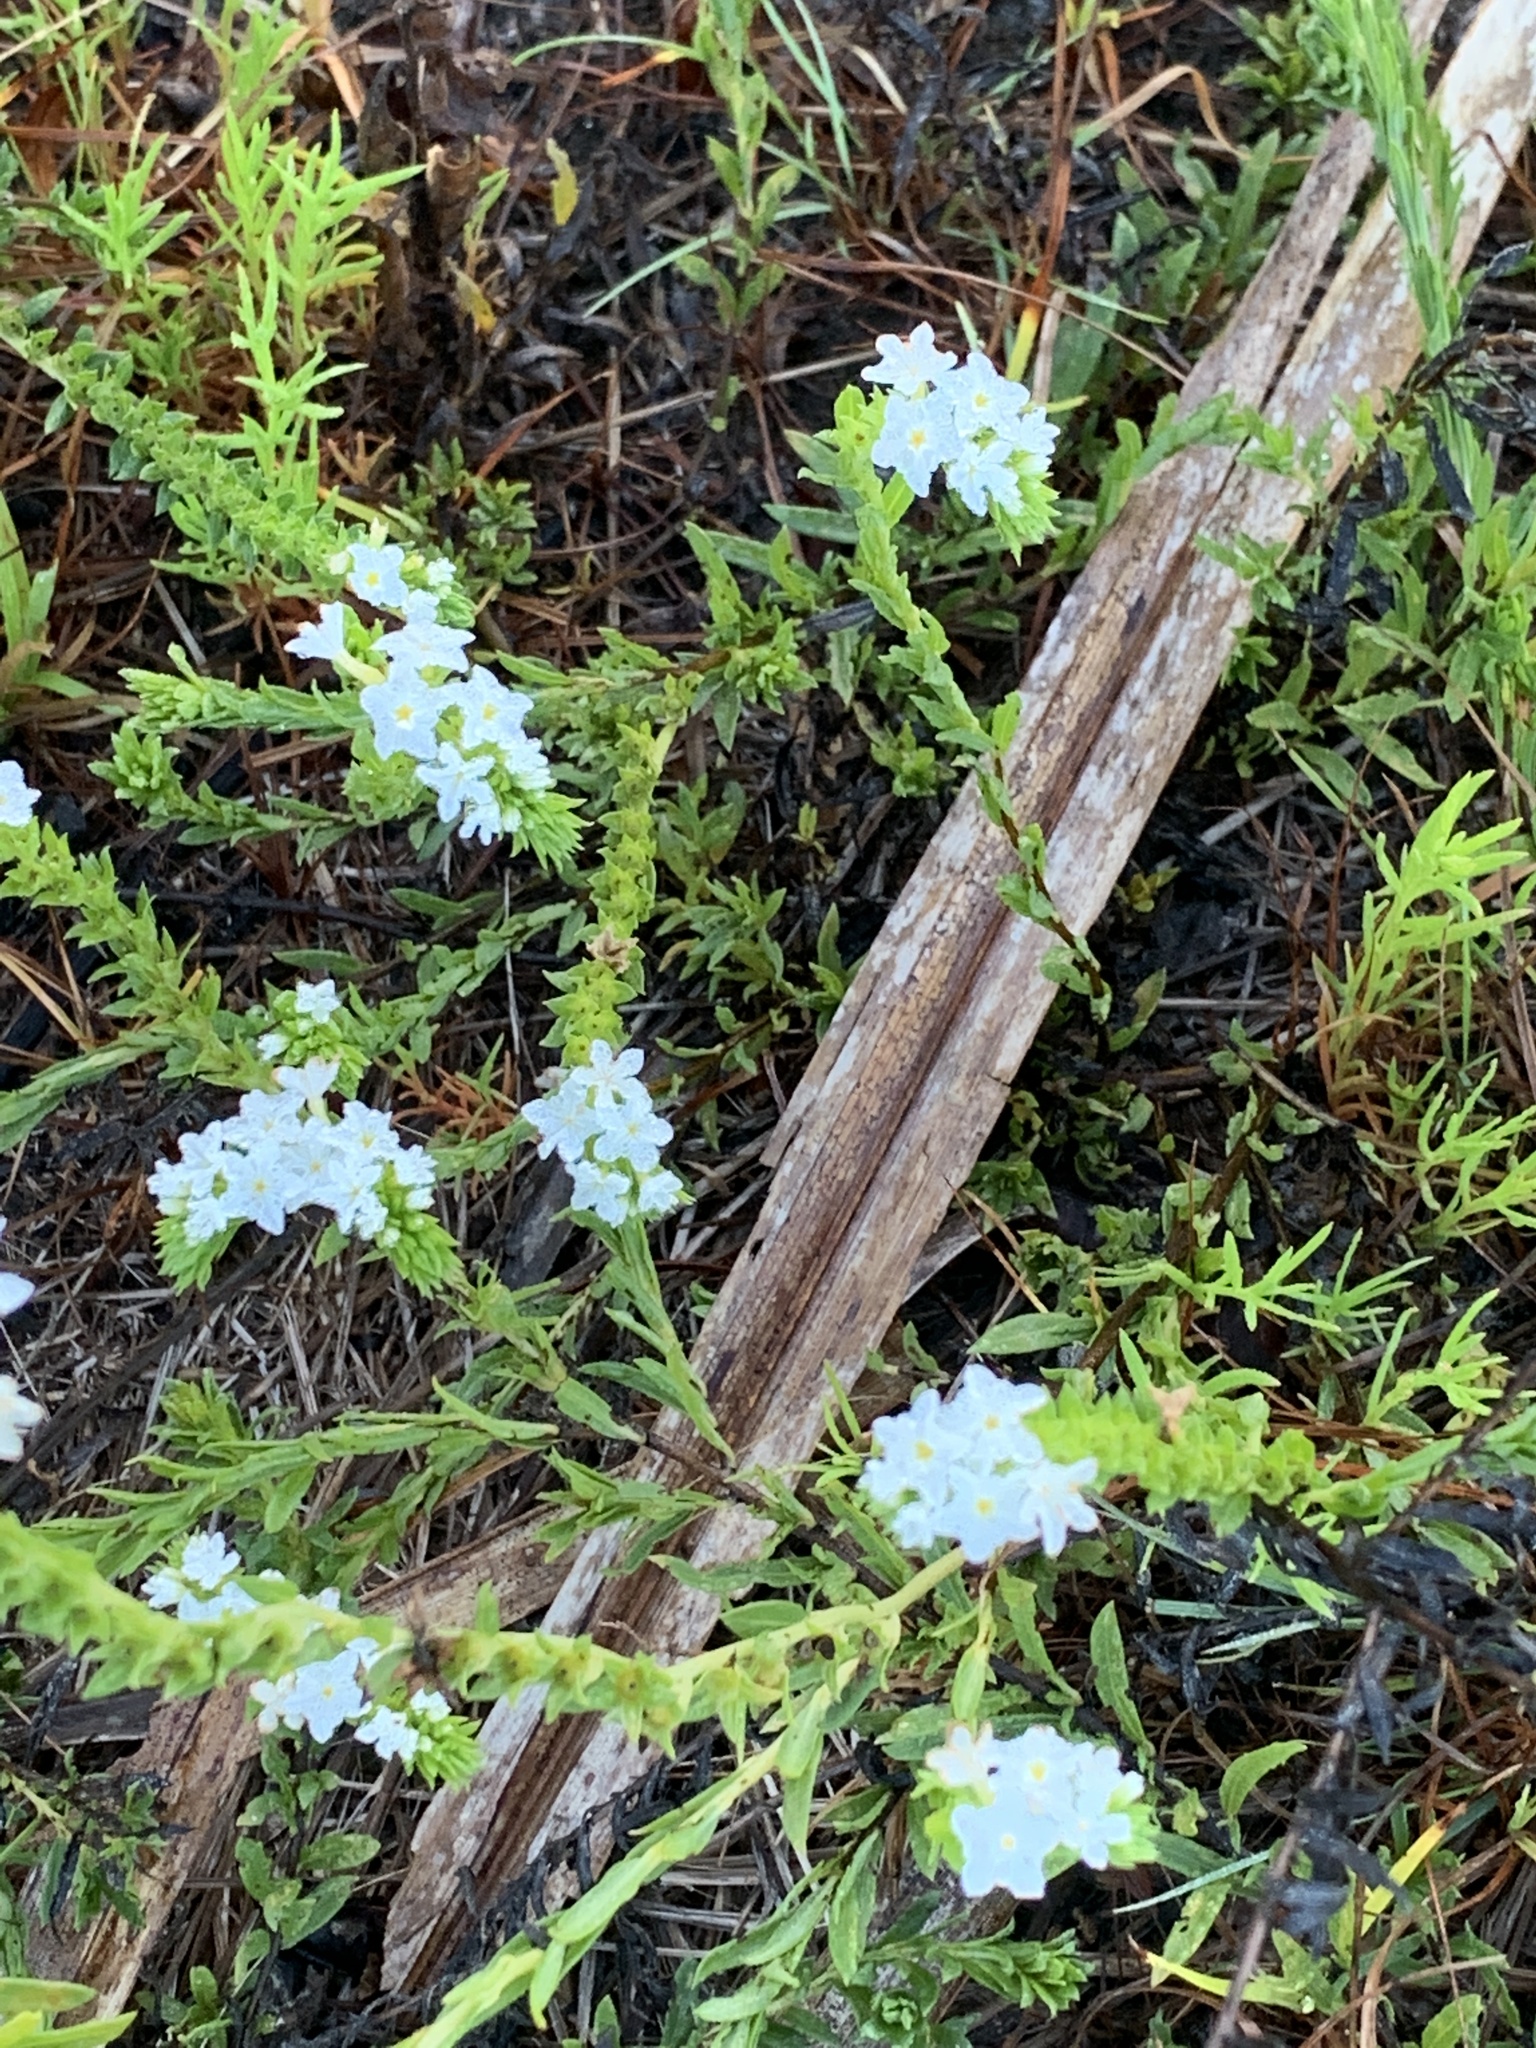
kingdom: Plantae
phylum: Tracheophyta
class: Magnoliopsida
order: Boraginales
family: Heliotropiaceae
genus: Euploca
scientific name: Euploca polyphylla
